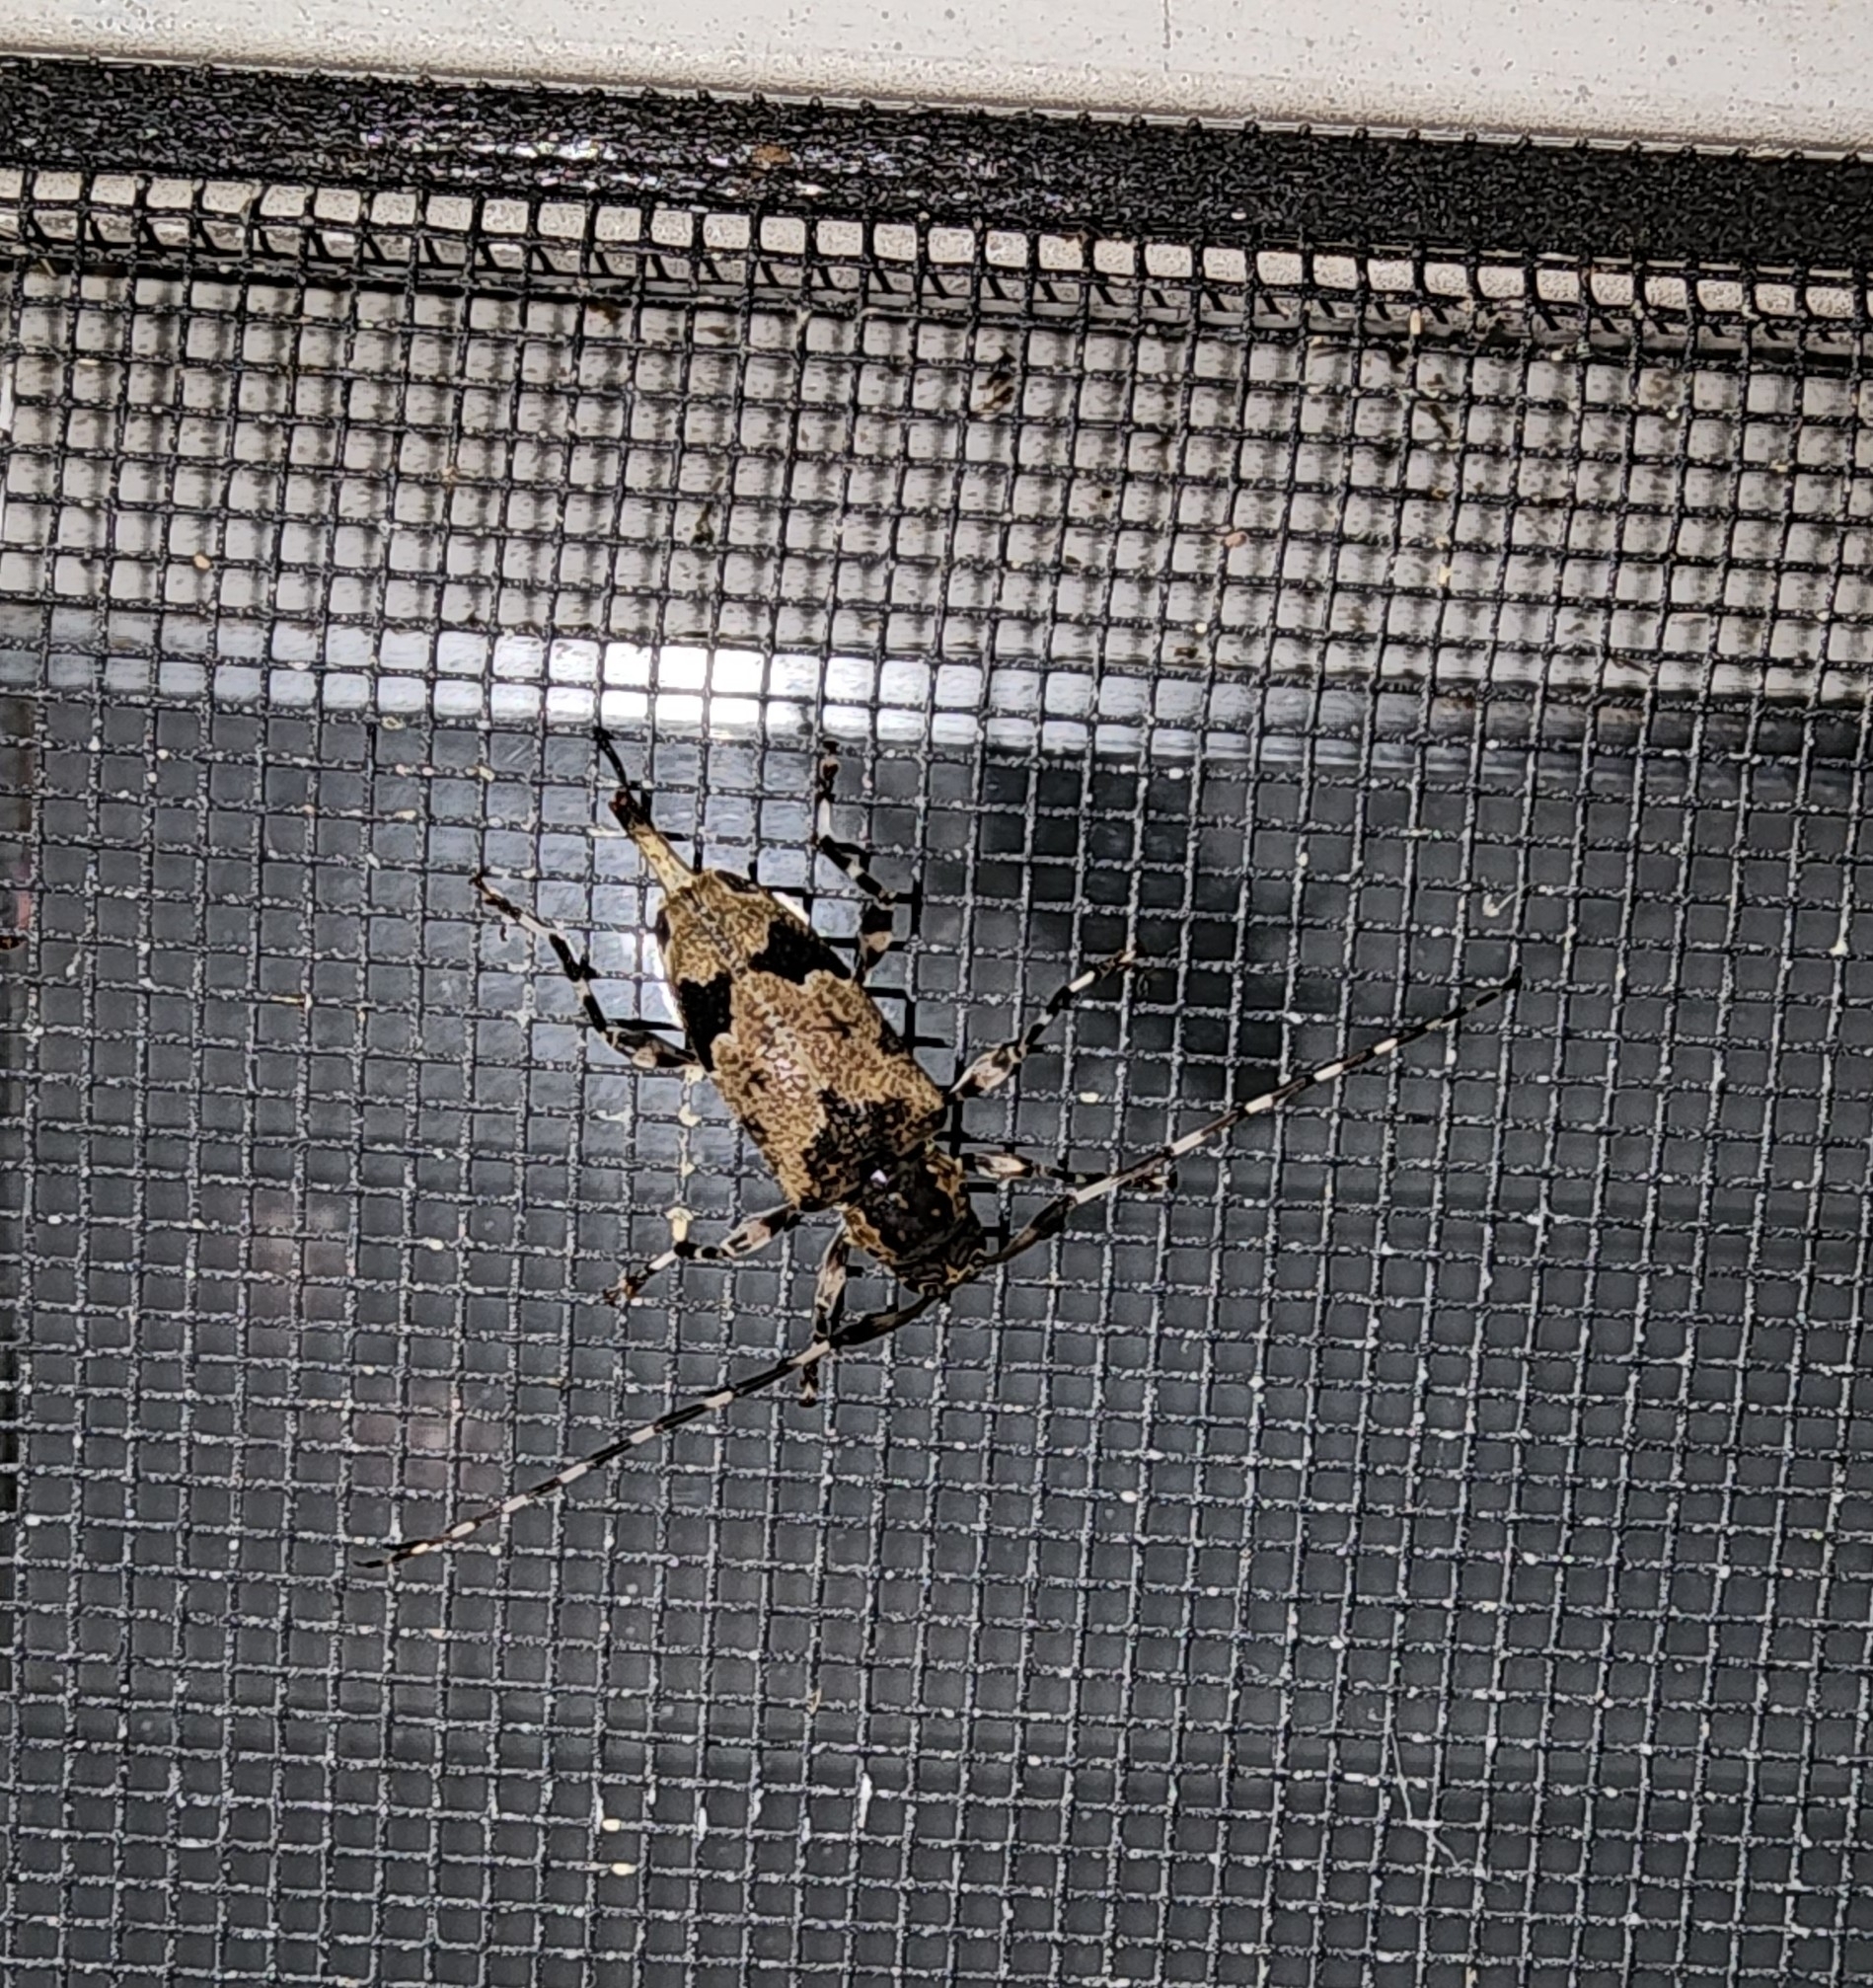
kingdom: Animalia
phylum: Arthropoda
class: Insecta
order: Coleoptera
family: Cerambycidae
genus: Graphisurus
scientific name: Graphisurus triangulifer
